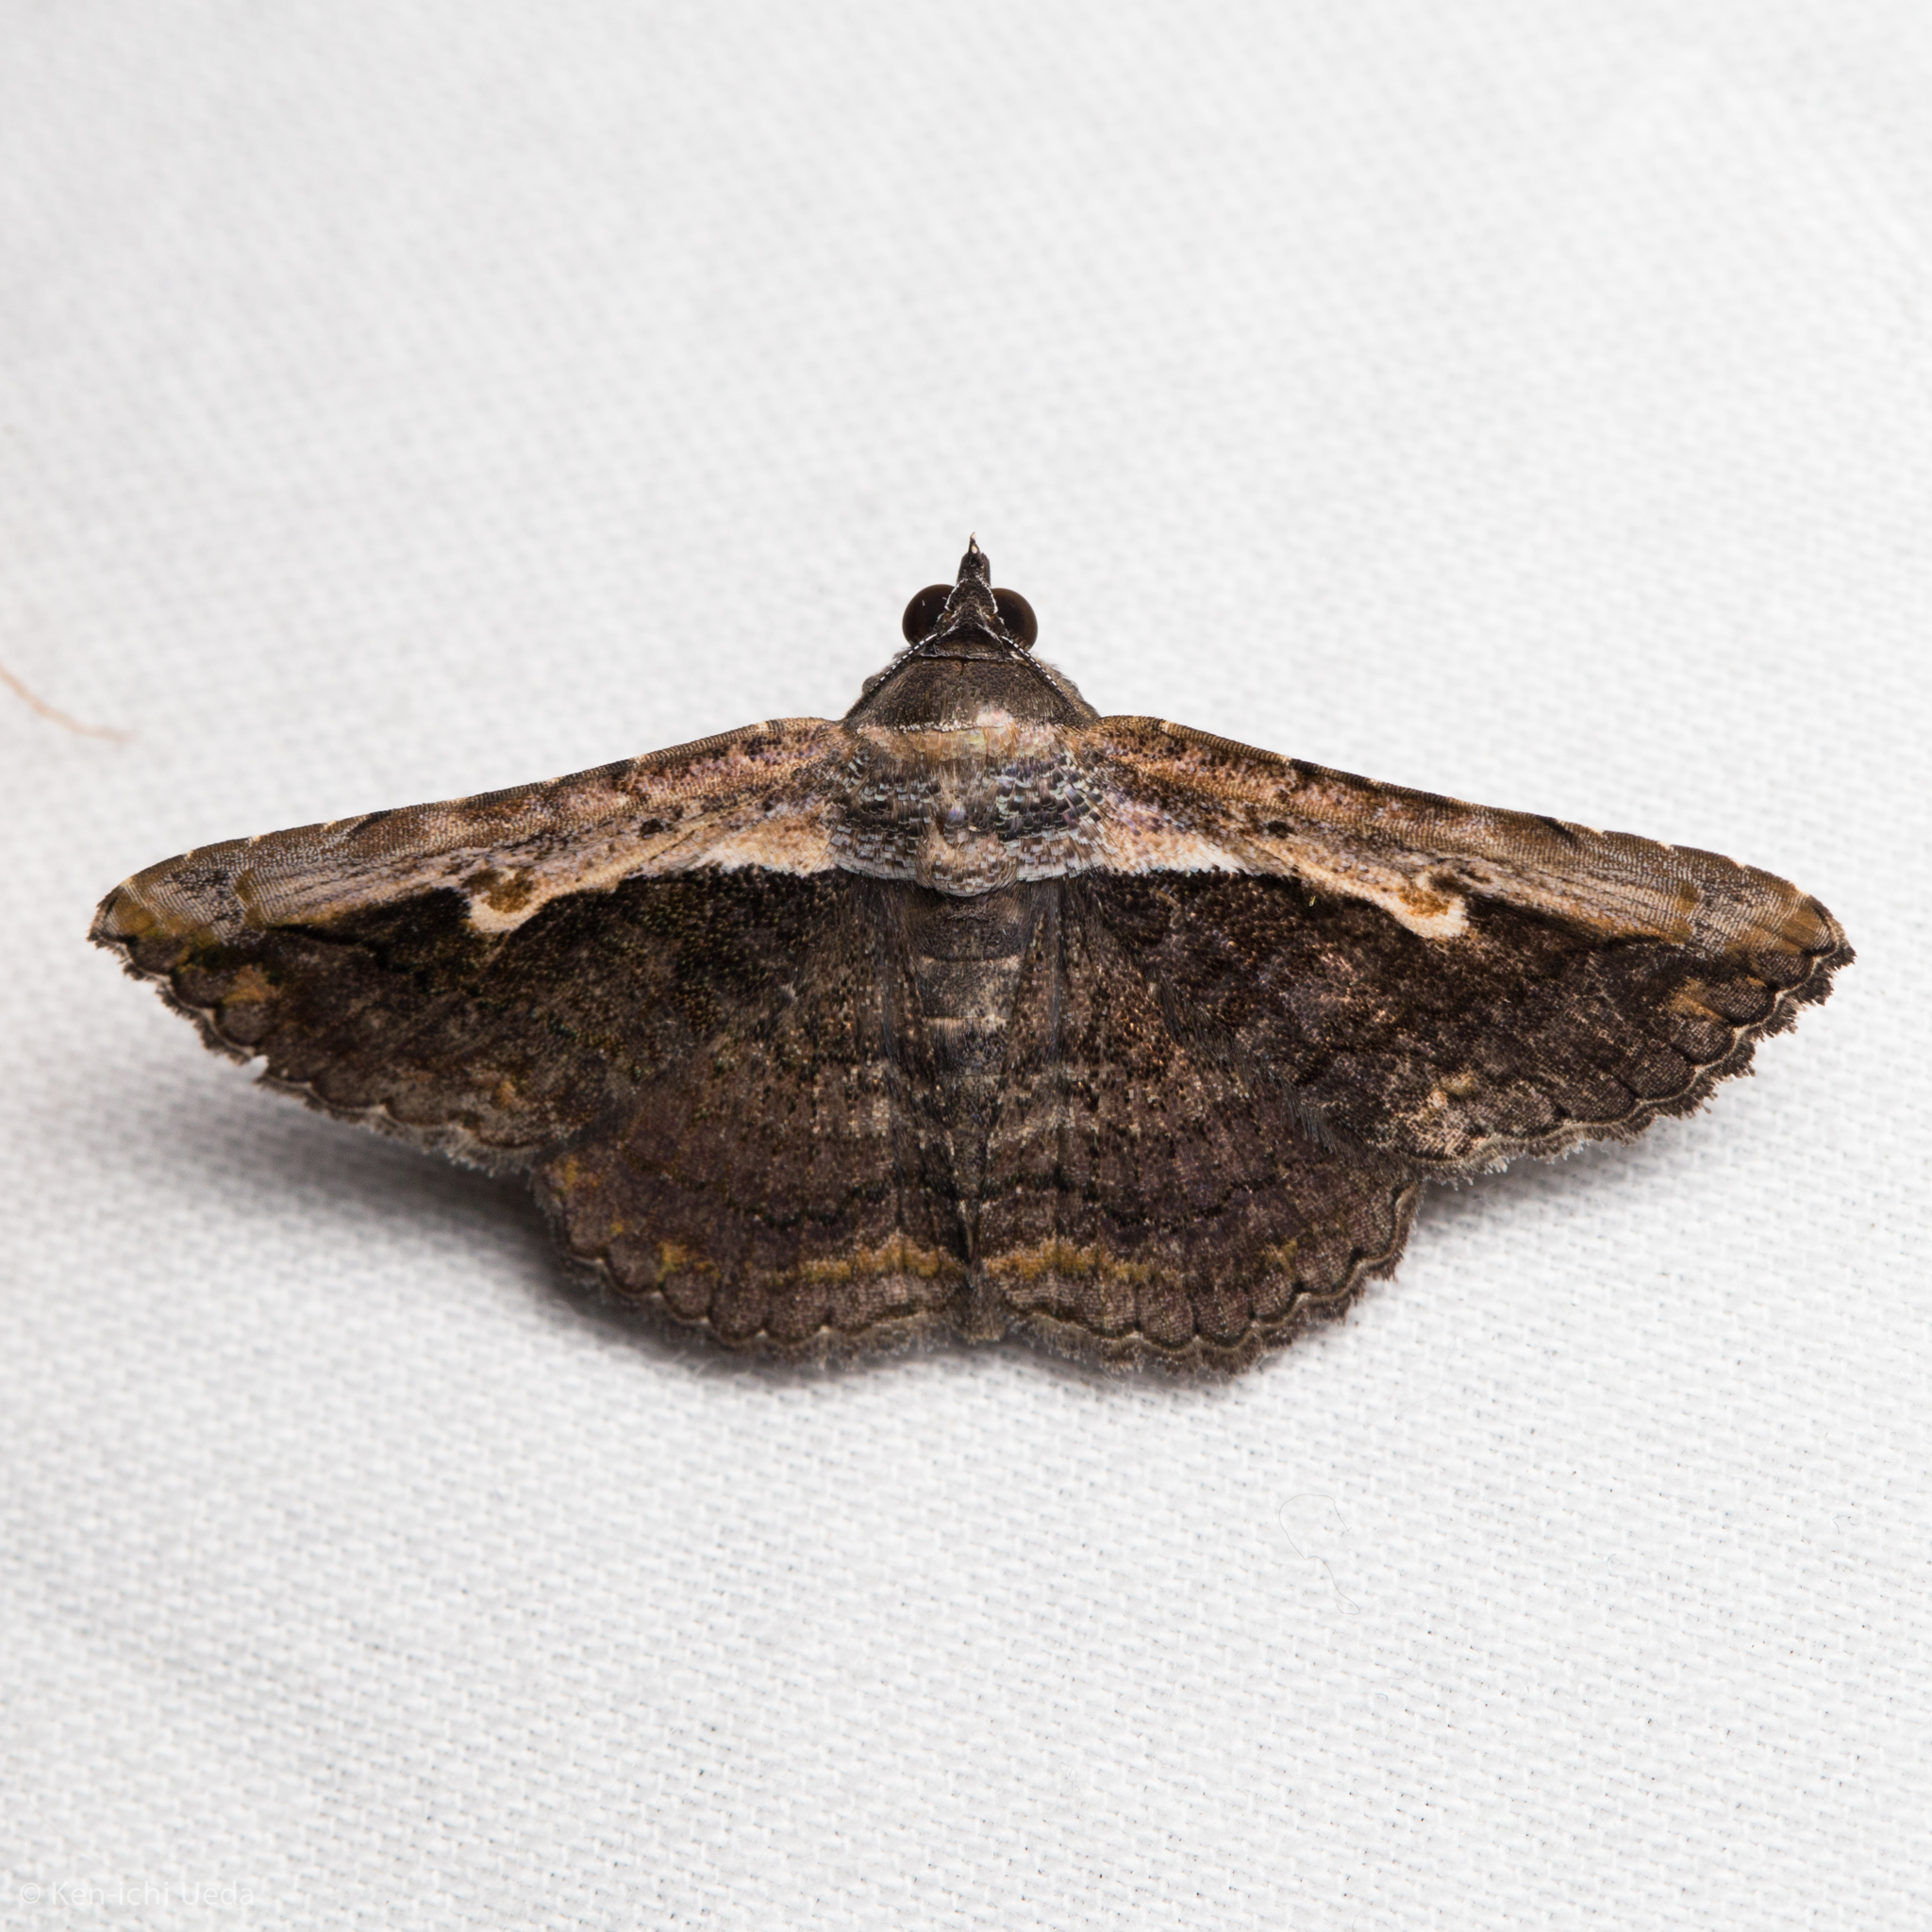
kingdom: Animalia
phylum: Arthropoda
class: Insecta
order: Lepidoptera
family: Erebidae
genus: Selenisa
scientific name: Selenisa sueroides
